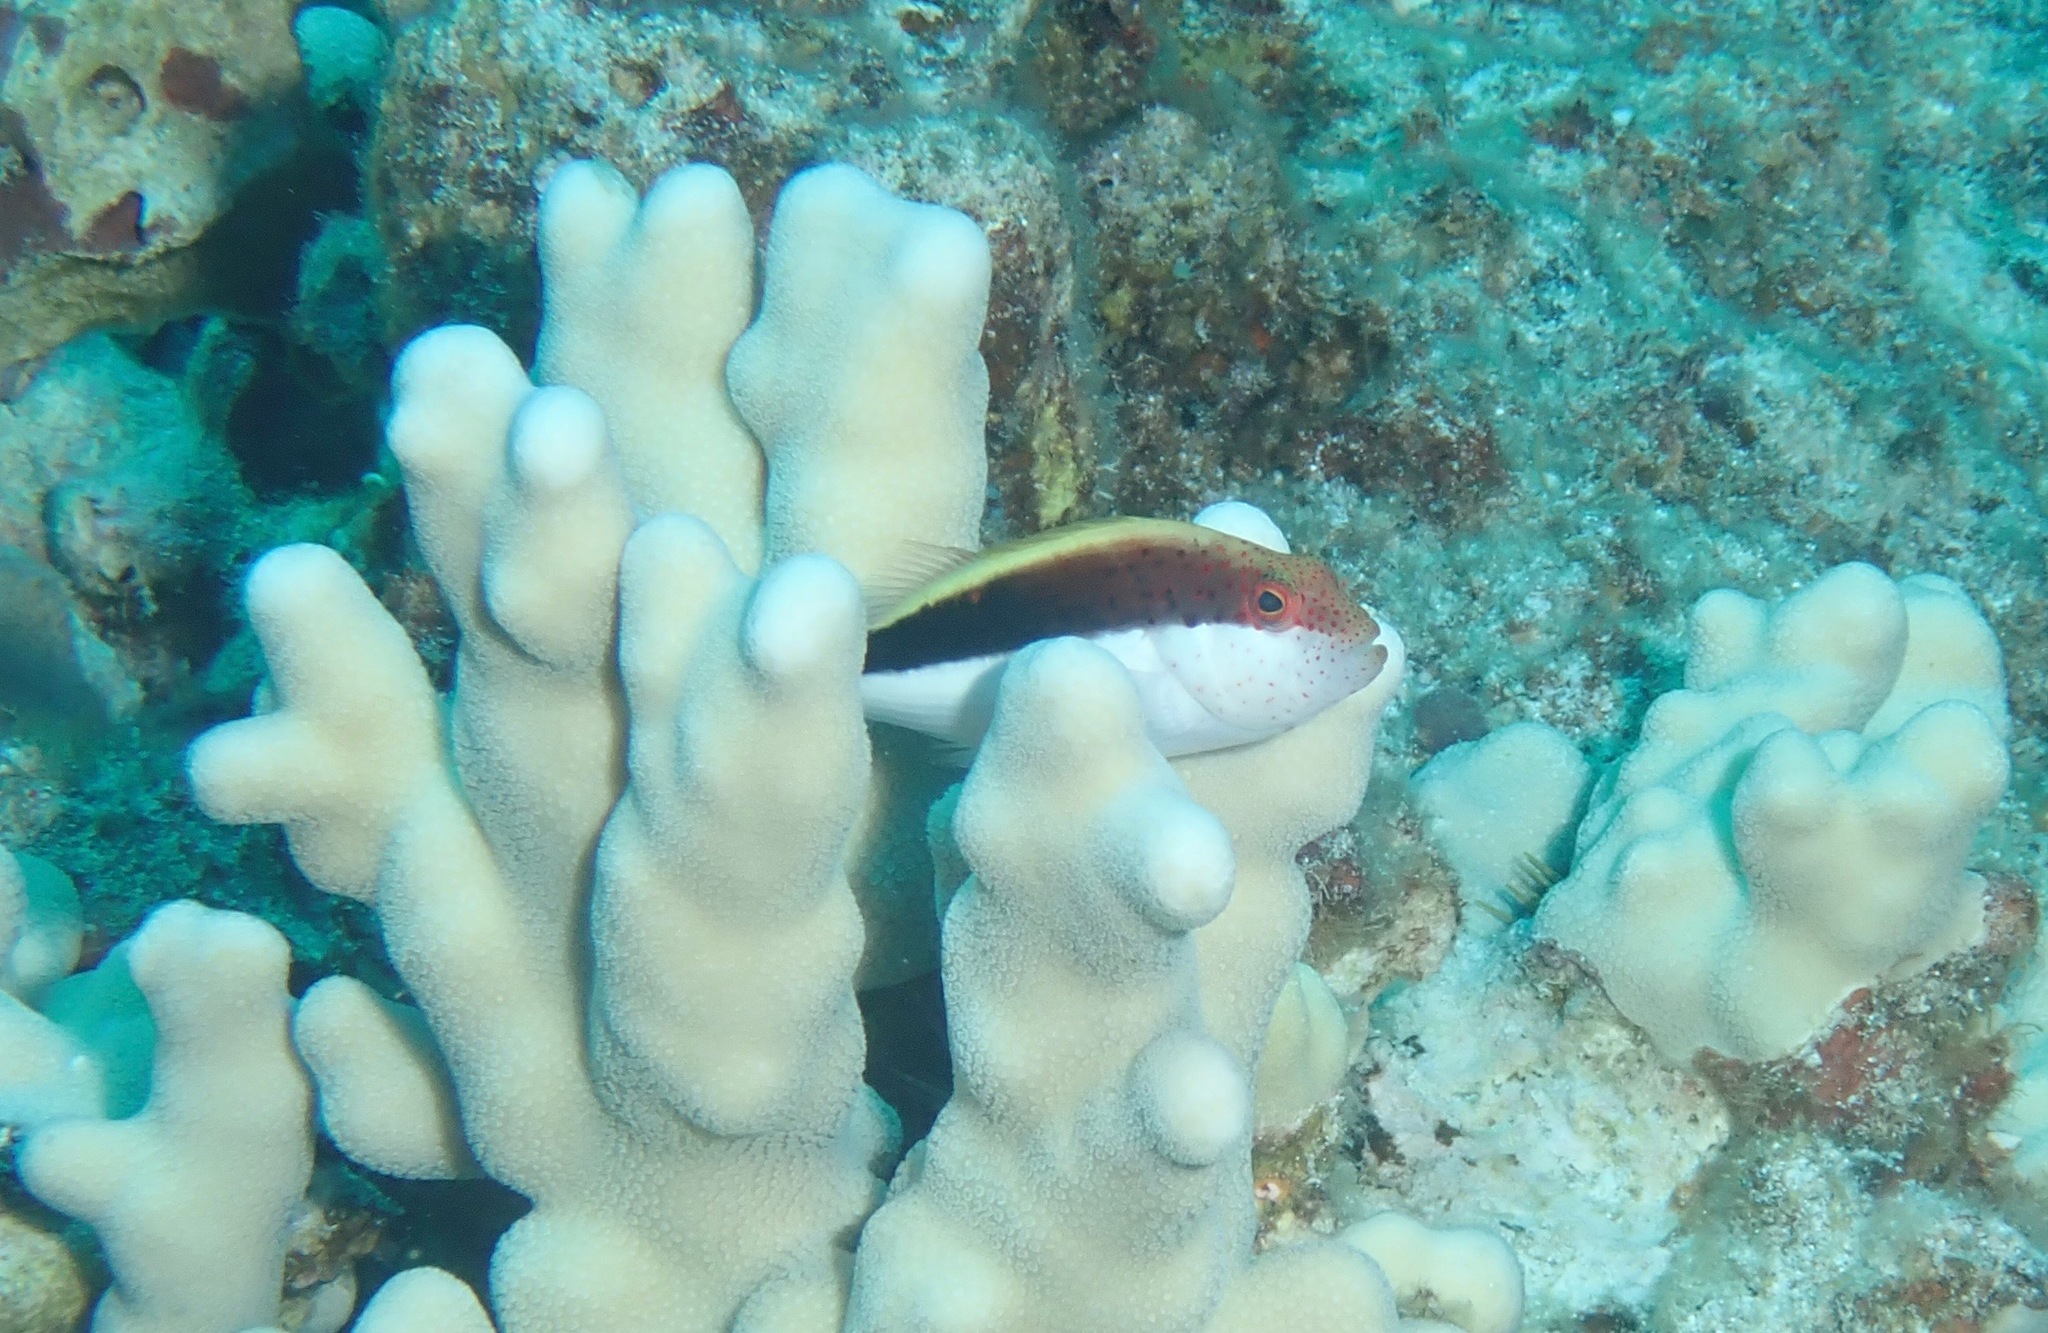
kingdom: Animalia
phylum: Chordata
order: Perciformes
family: Cirrhitidae
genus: Paracirrhites
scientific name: Paracirrhites forsteri
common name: Freckled hawkfish
